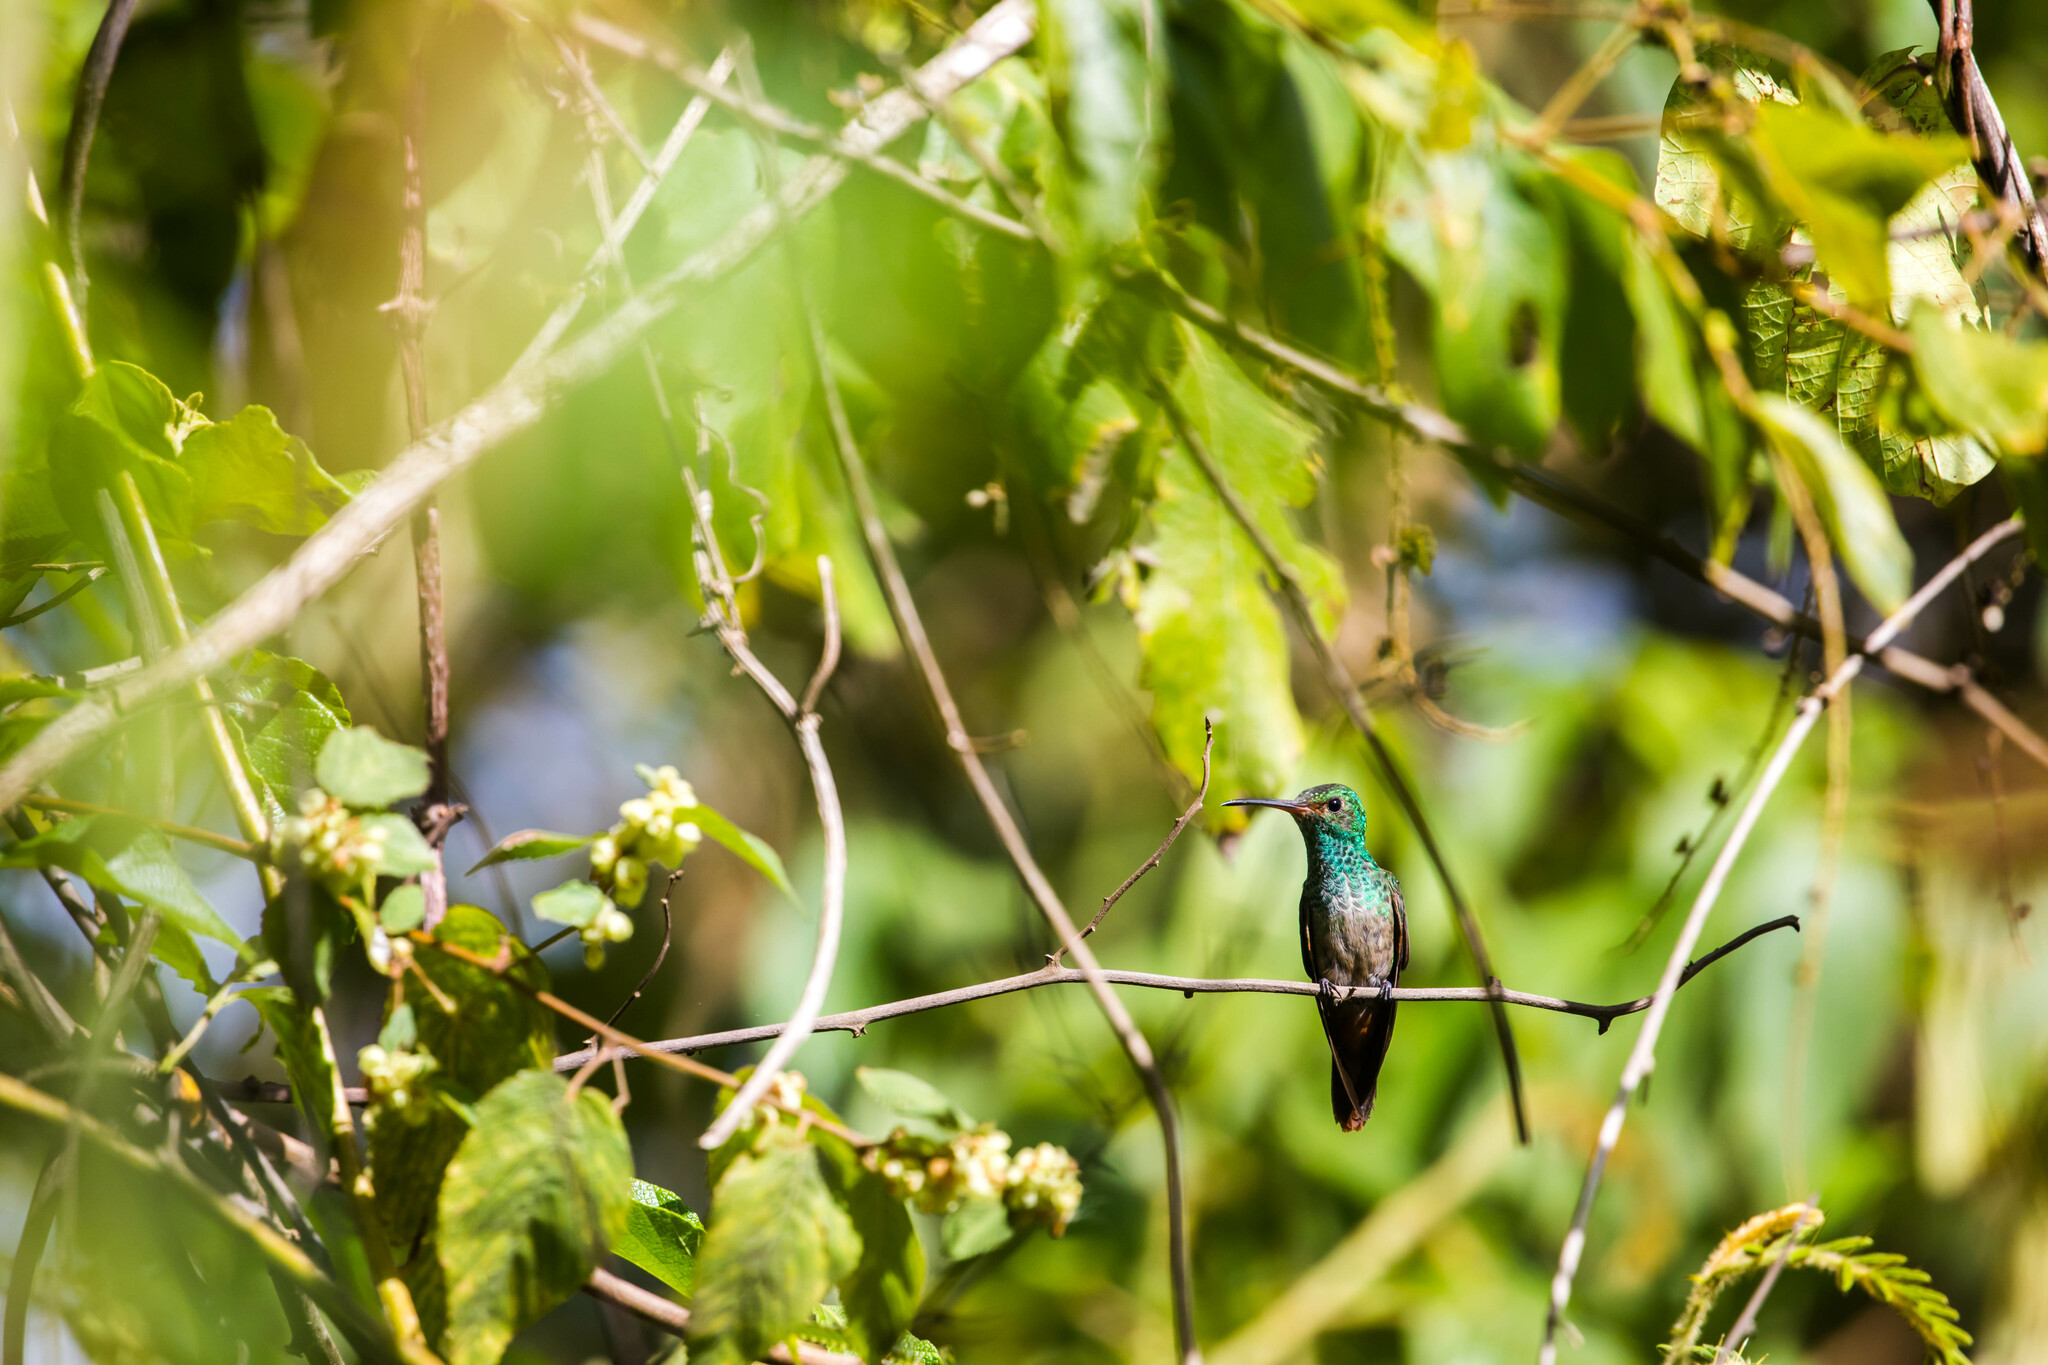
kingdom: Animalia
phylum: Chordata
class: Aves
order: Apodiformes
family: Trochilidae
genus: Amazilia
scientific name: Amazilia tzacatl
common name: Rufous-tailed hummingbird
